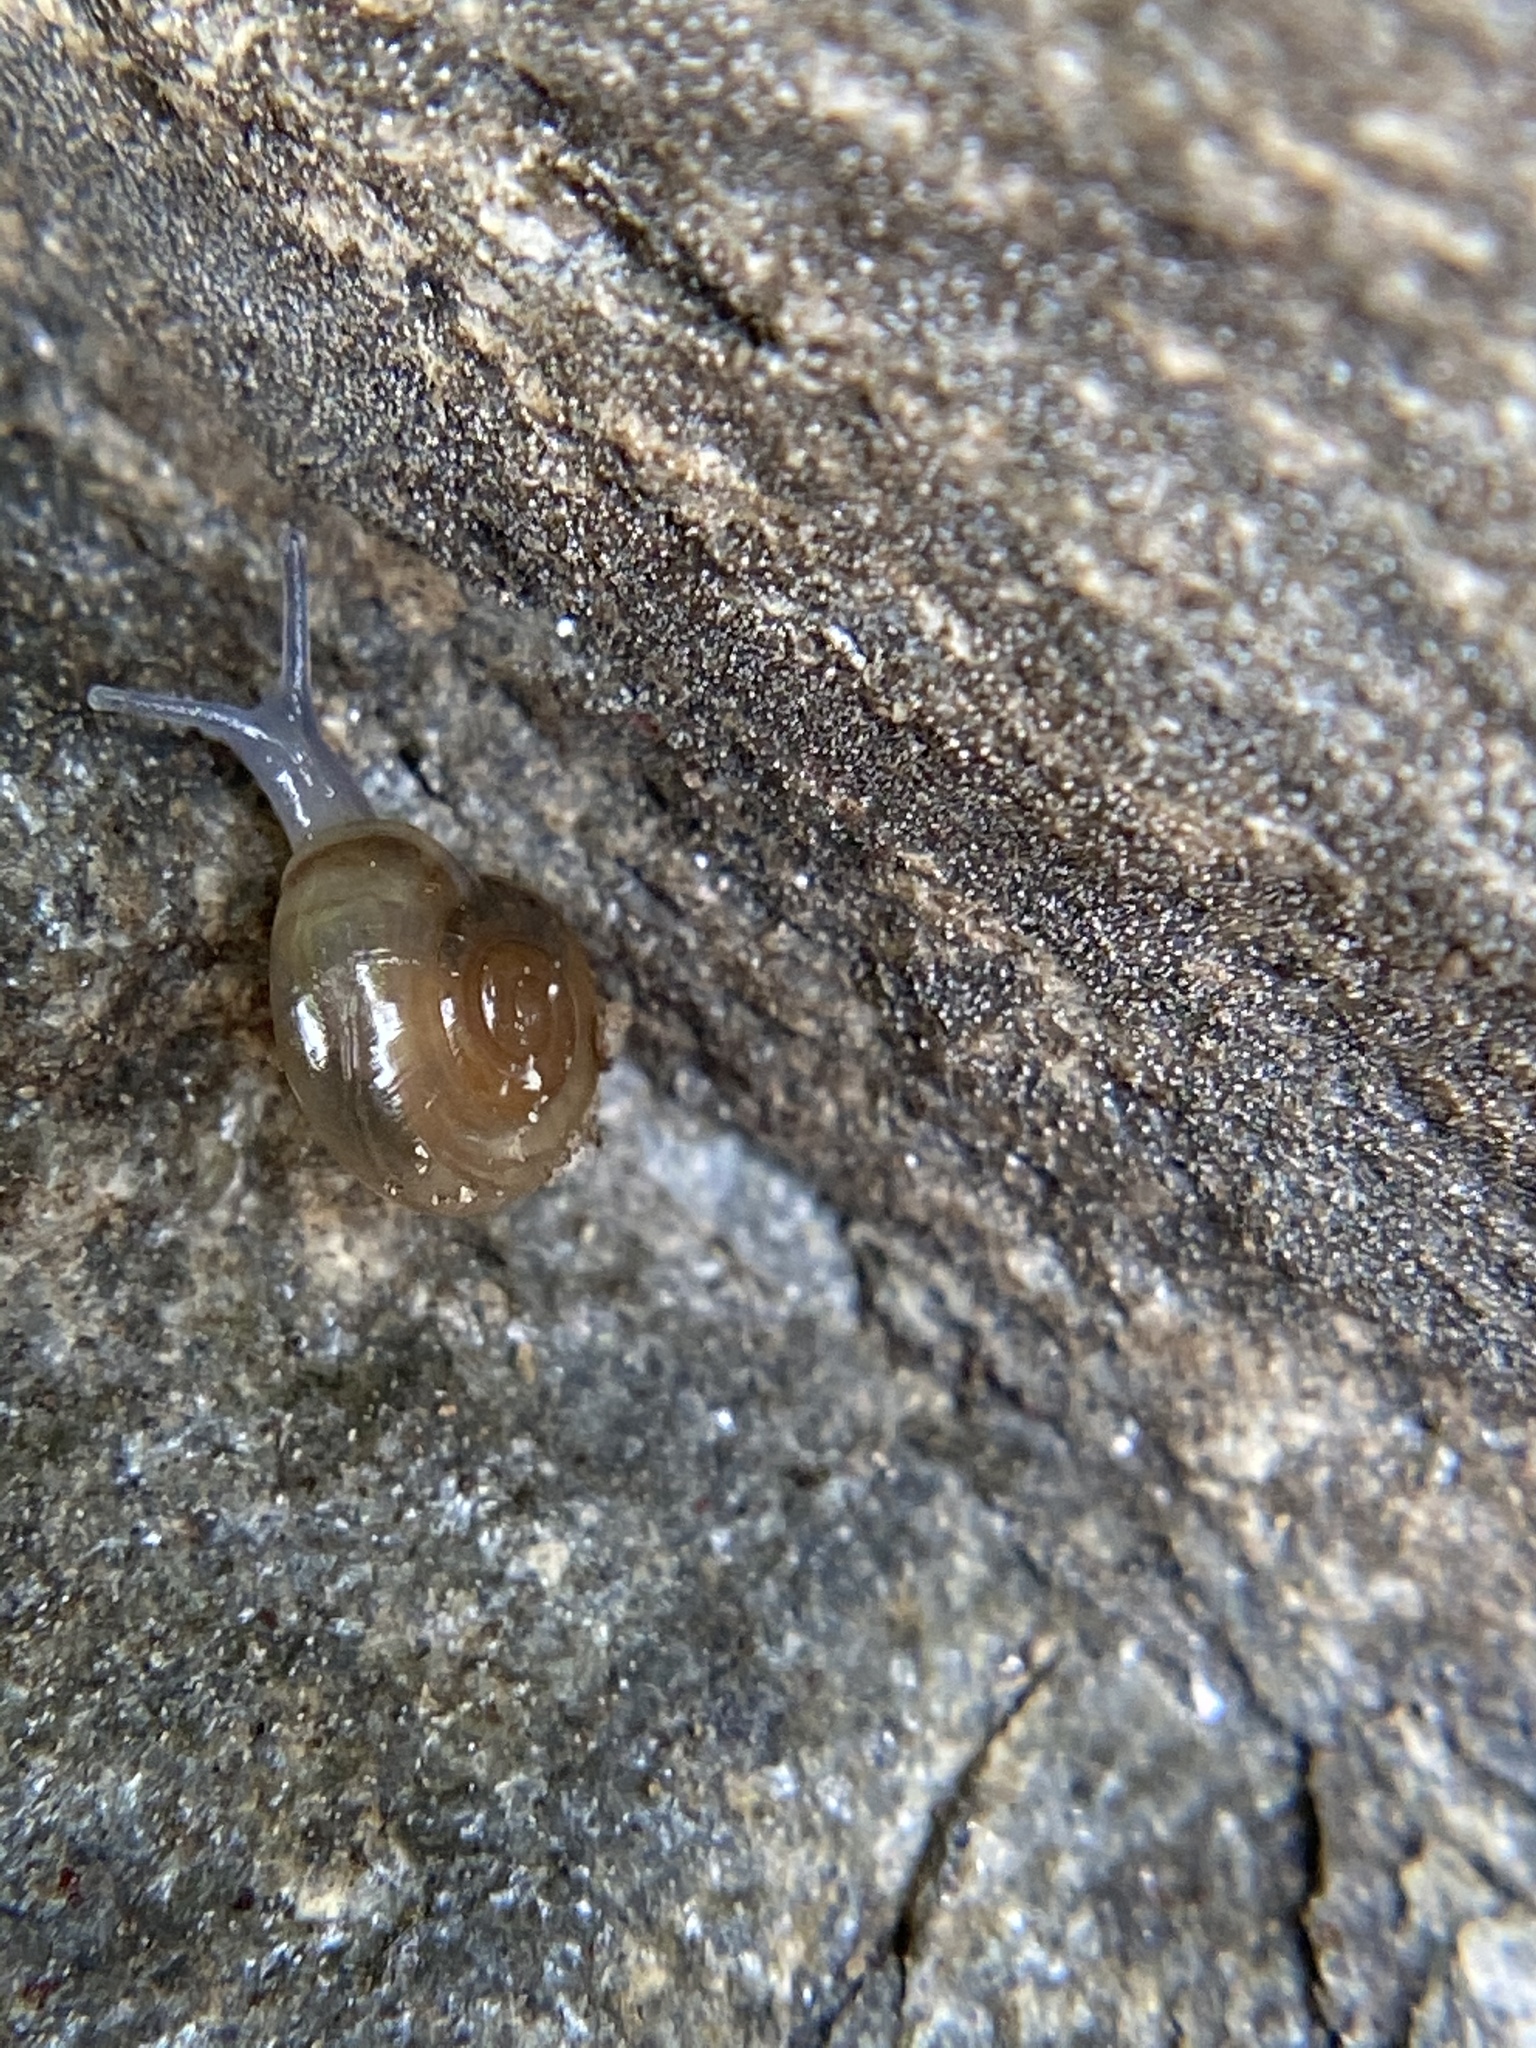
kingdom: Animalia
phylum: Mollusca
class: Gastropoda
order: Stylommatophora
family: Oxychilidae
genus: Oxychilus
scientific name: Oxychilus draparnaudi
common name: Draparnaud's glass snail
